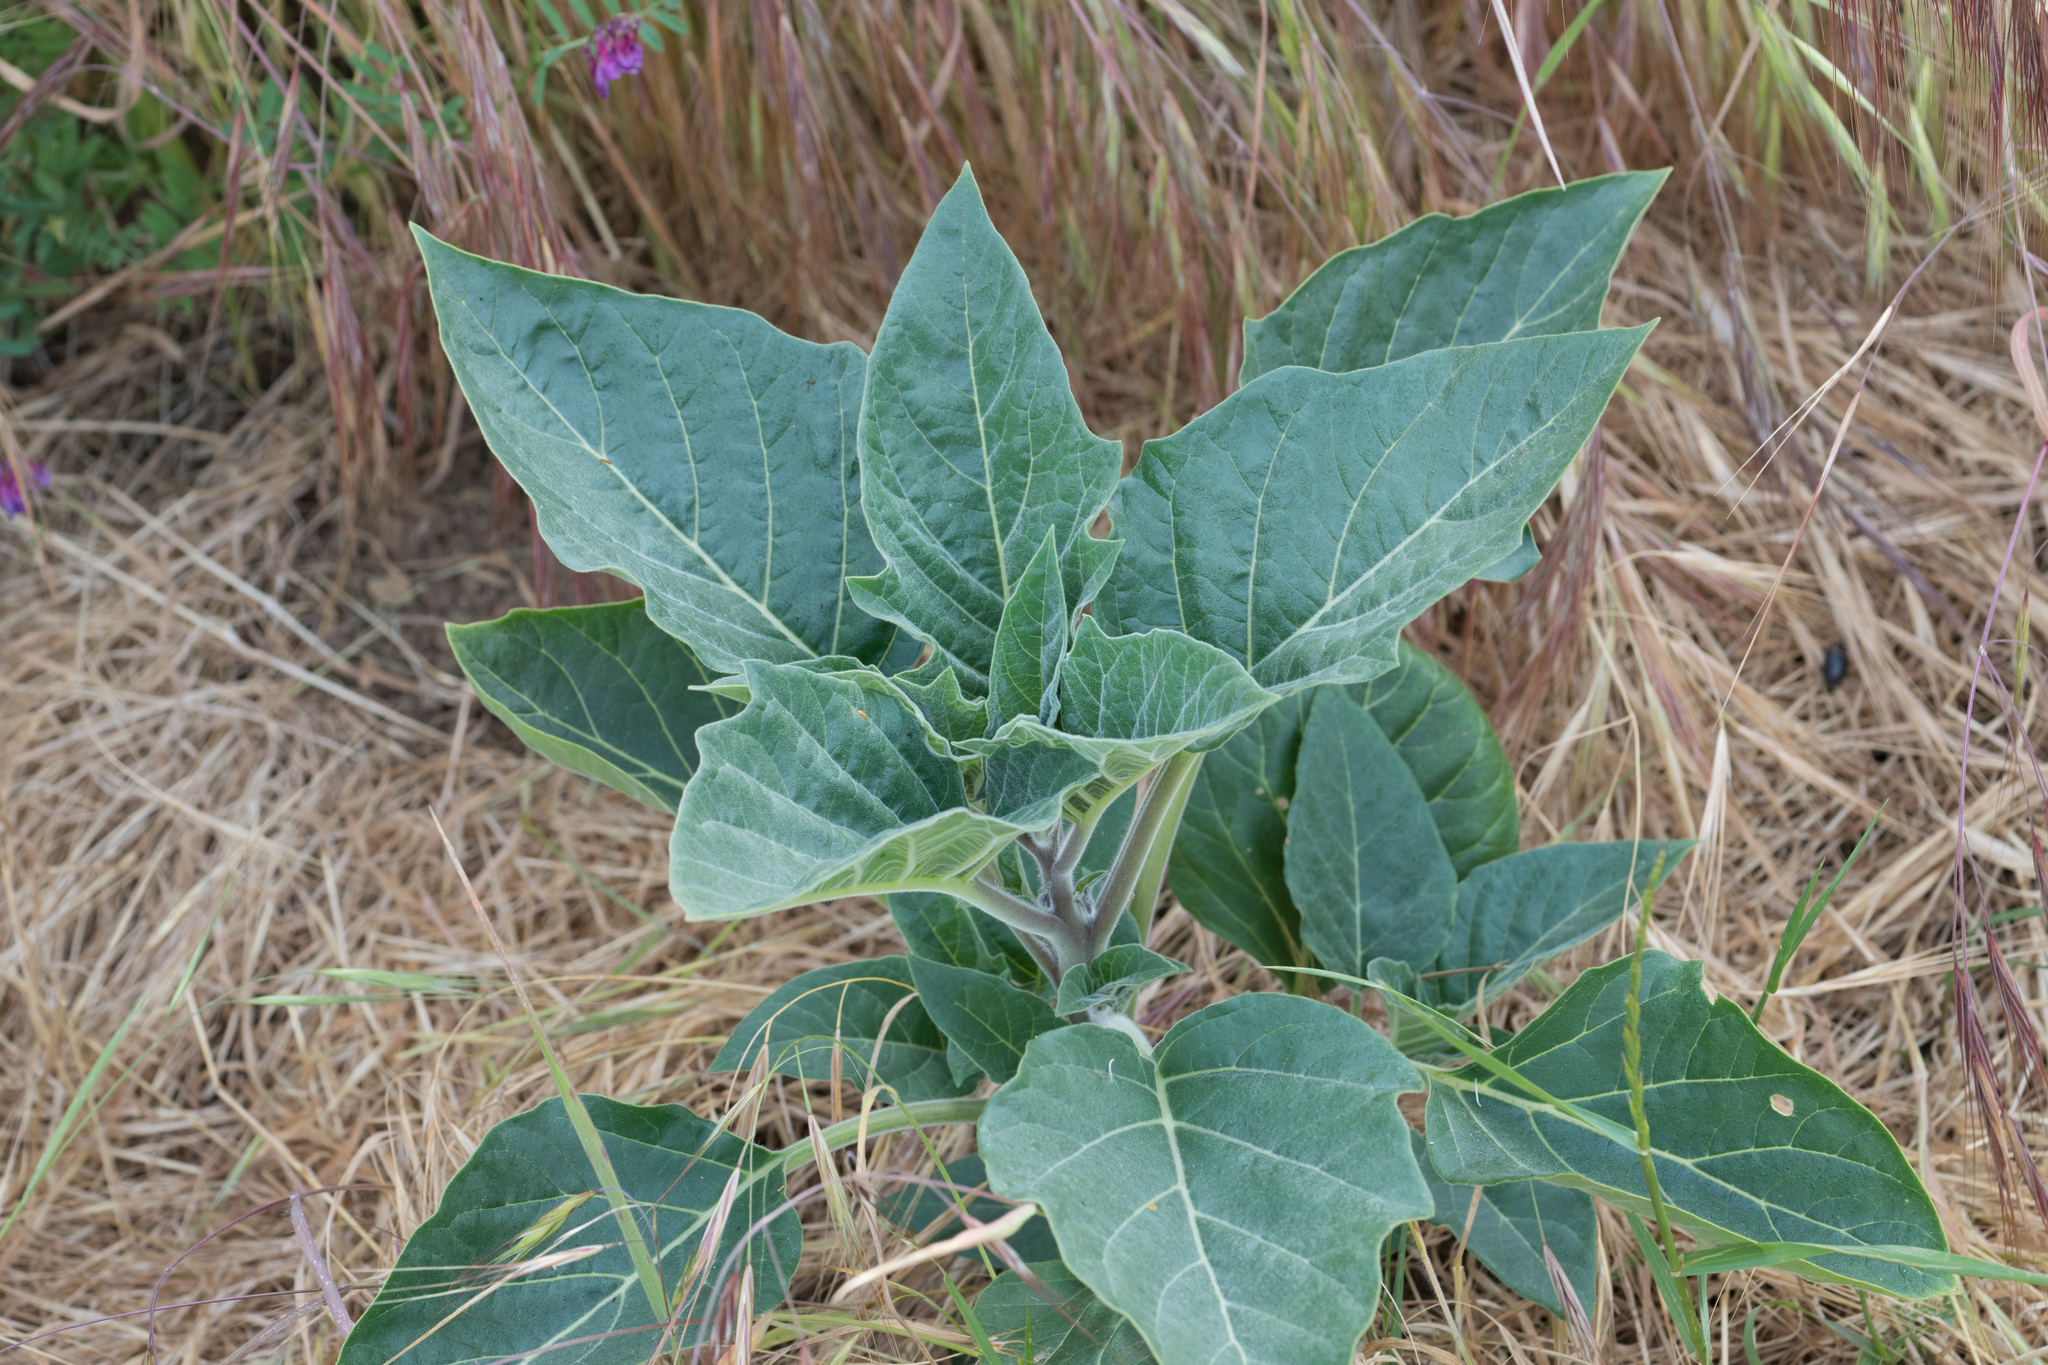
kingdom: Plantae
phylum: Tracheophyta
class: Magnoliopsida
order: Solanales
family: Solanaceae
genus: Datura
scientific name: Datura wrightii
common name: Sacred thorn-apple
